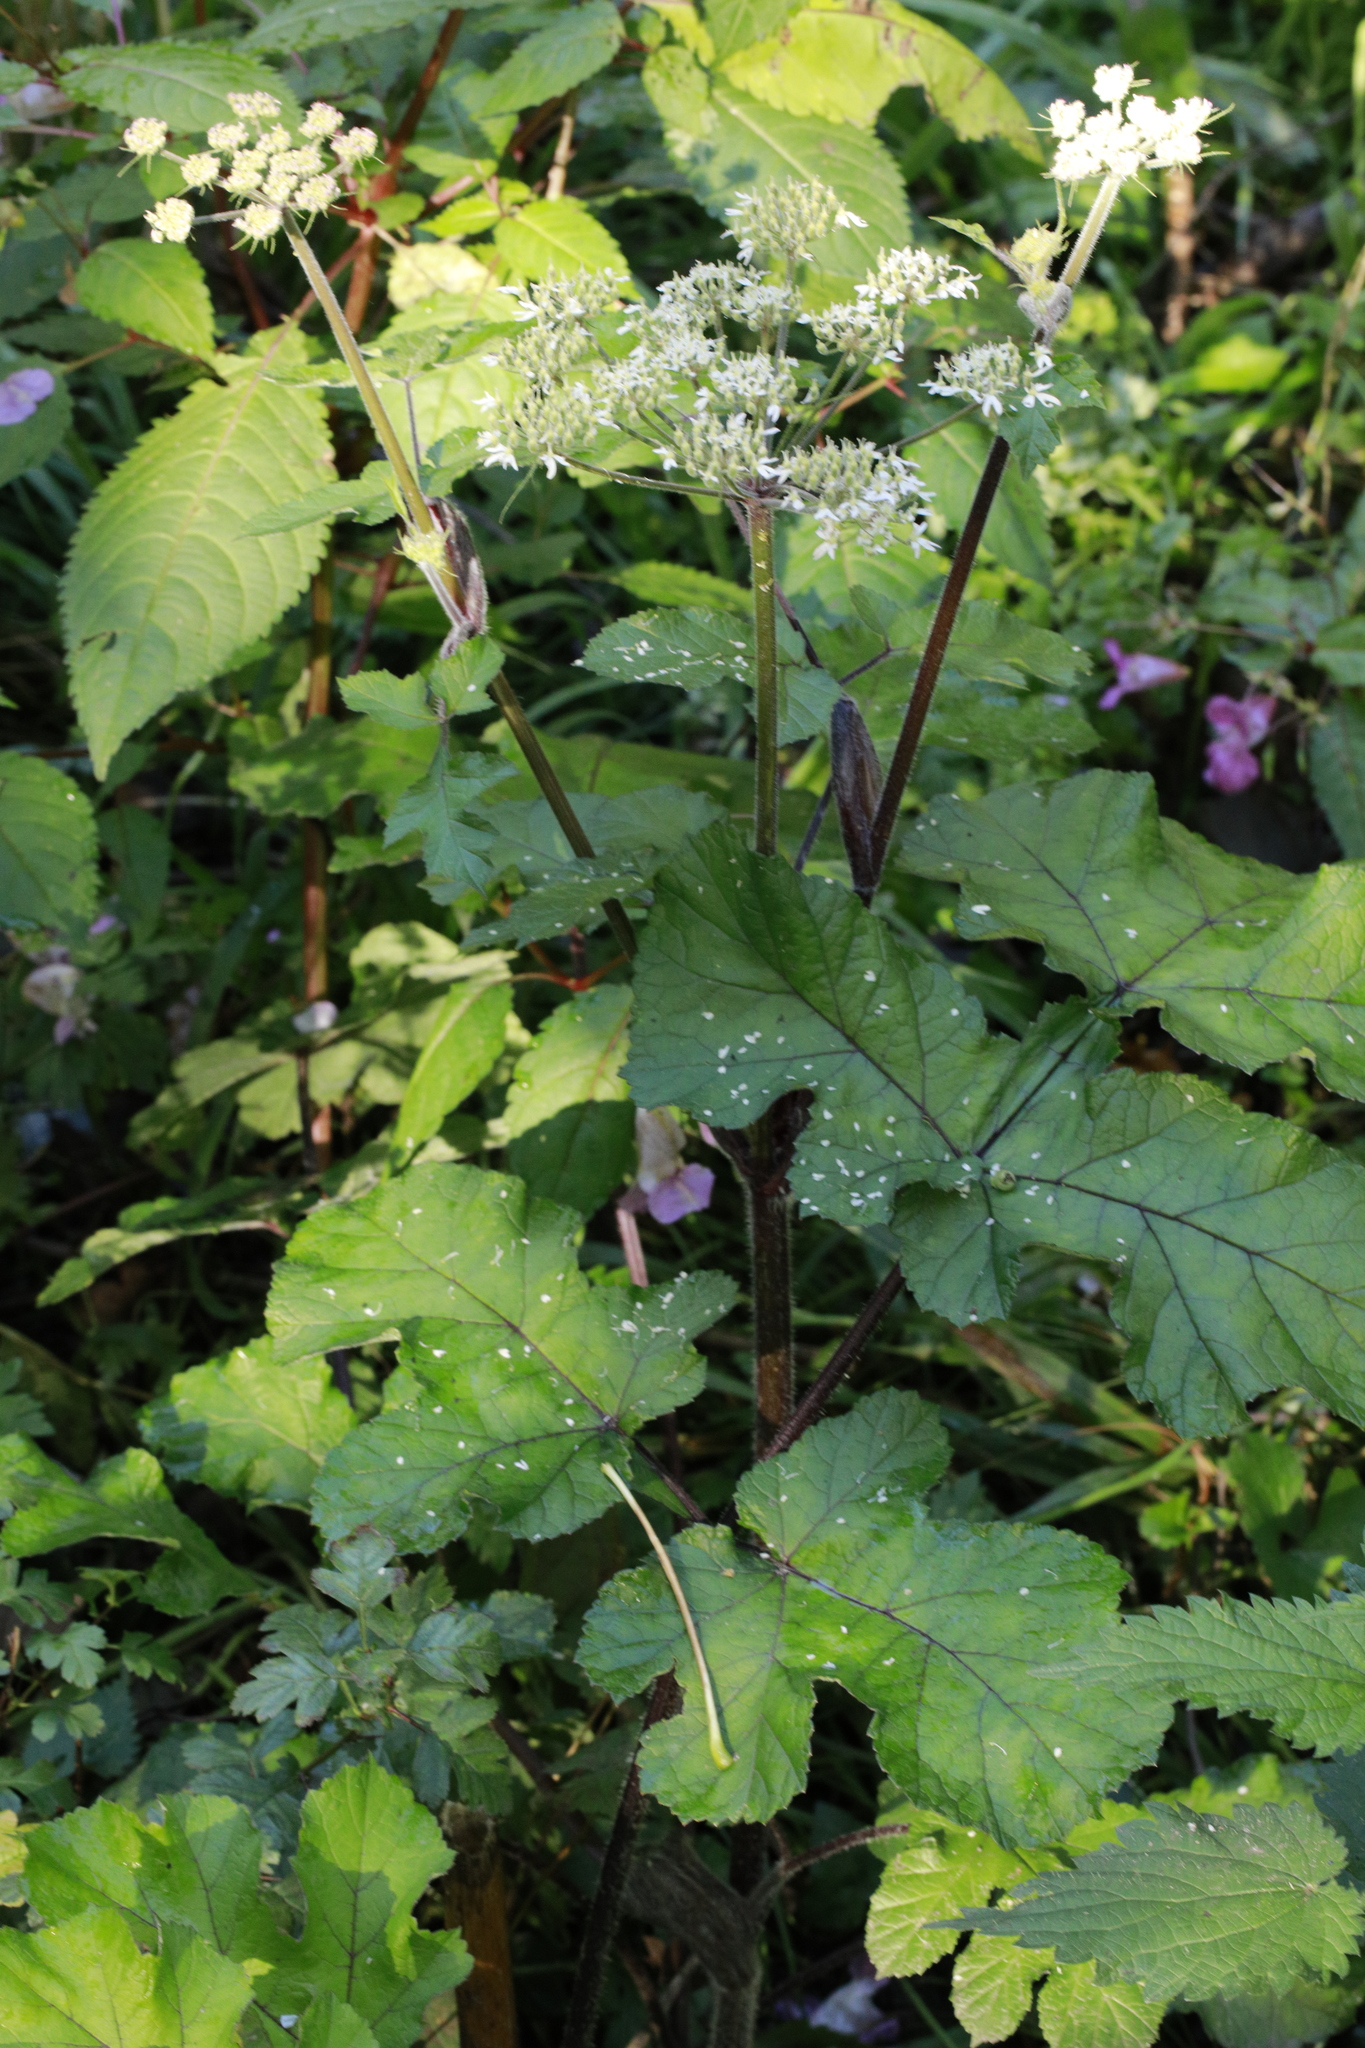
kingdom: Plantae
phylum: Tracheophyta
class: Magnoliopsida
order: Apiales
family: Apiaceae
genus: Heracleum
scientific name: Heracleum sphondylium
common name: Hogweed
